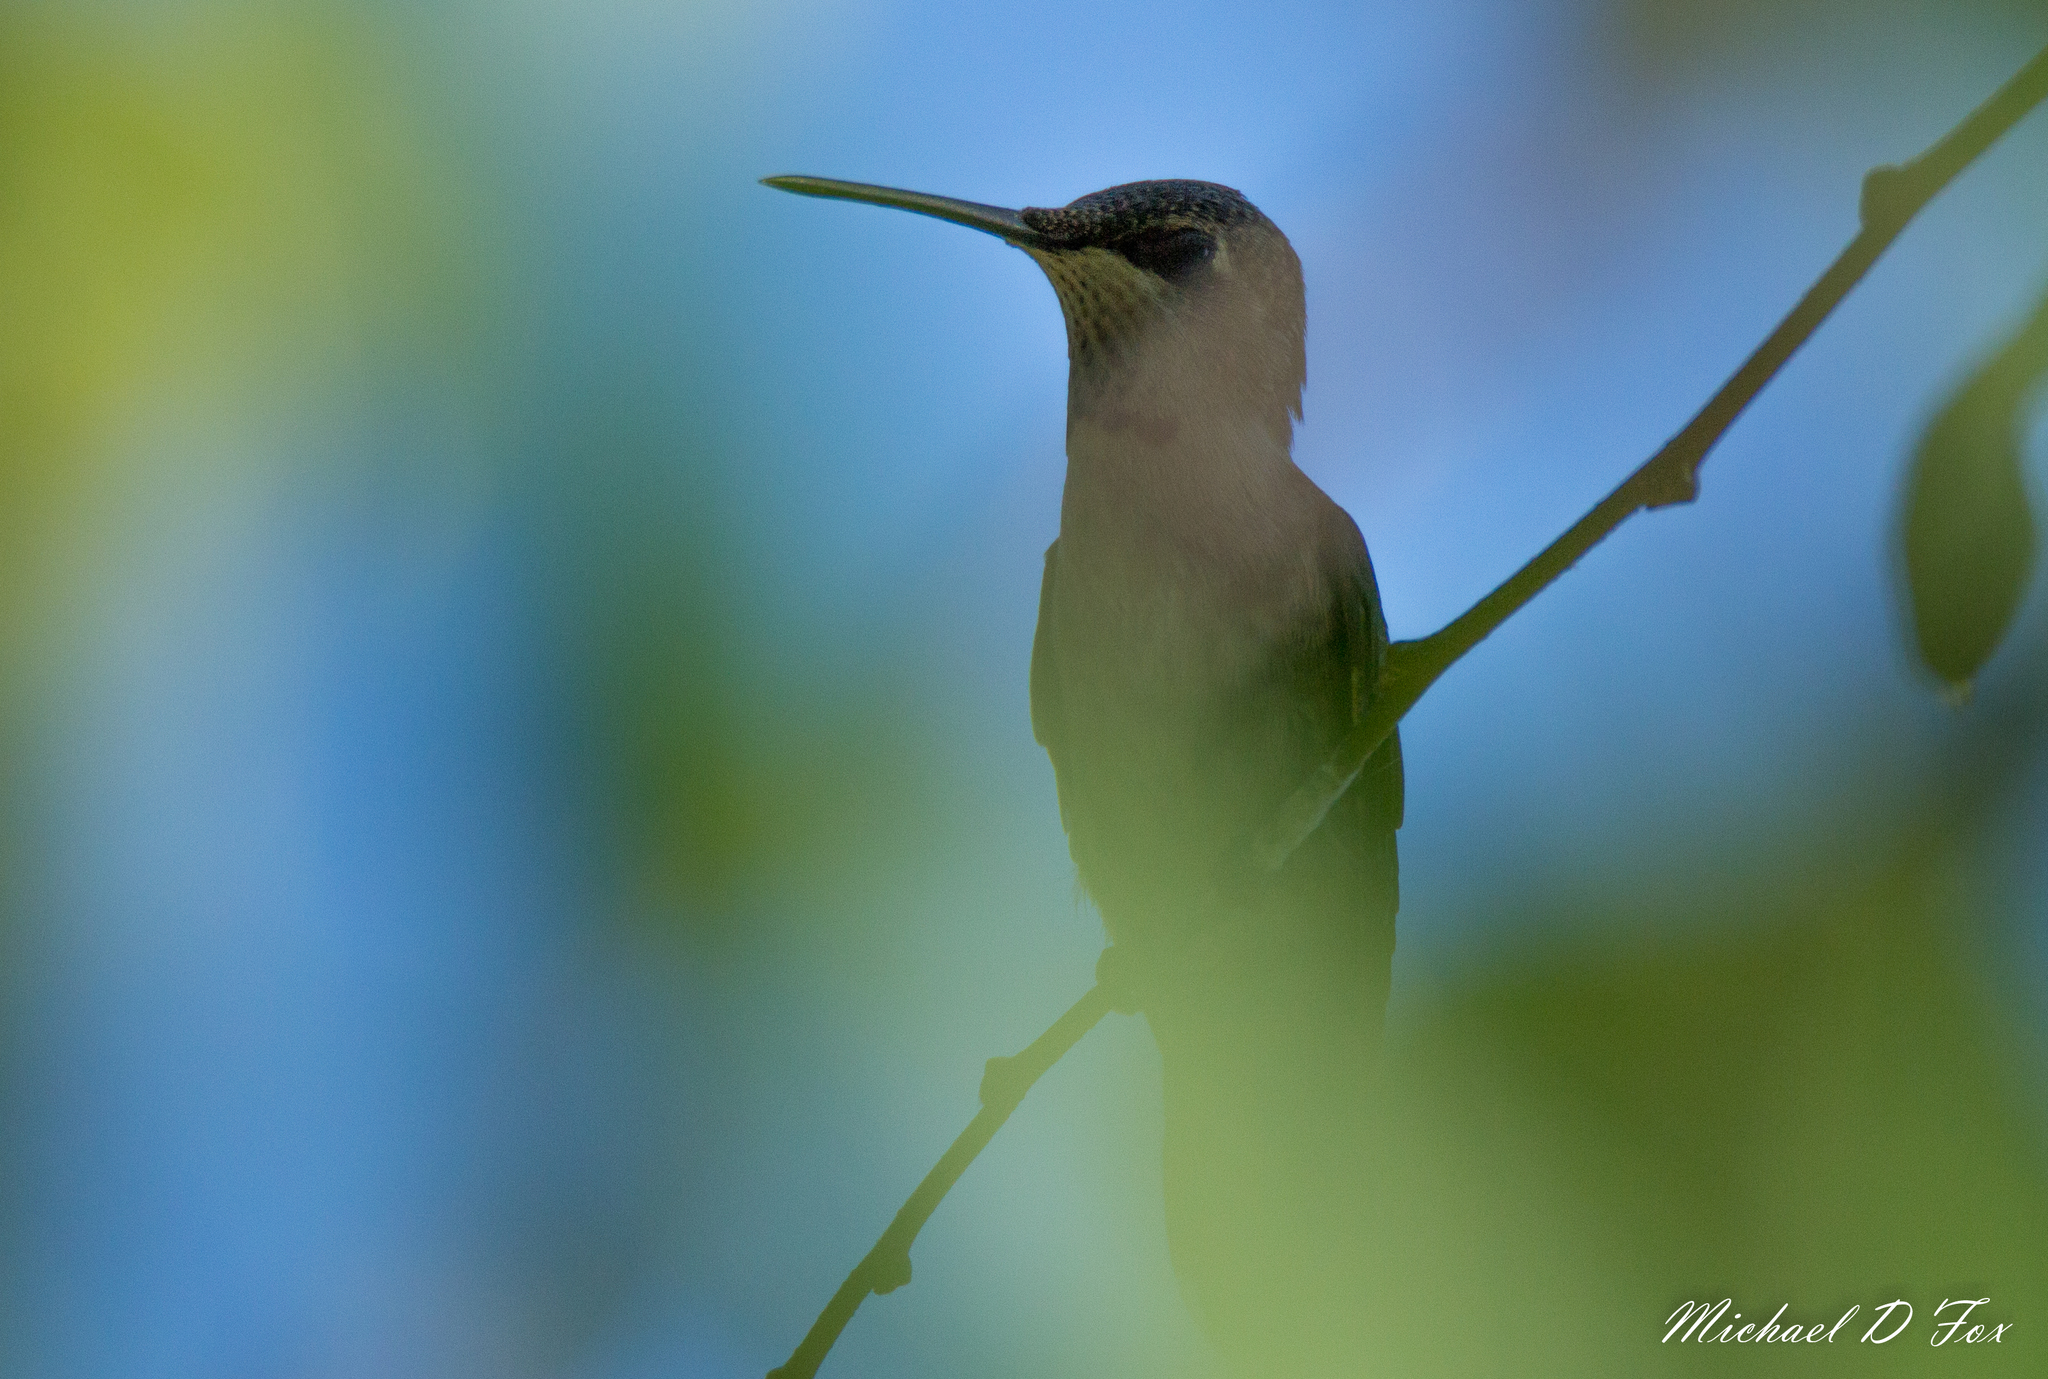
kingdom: Animalia
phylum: Chordata
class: Aves
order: Apodiformes
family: Trochilidae
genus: Archilochus
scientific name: Archilochus alexandri
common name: Black-chinned hummingbird
